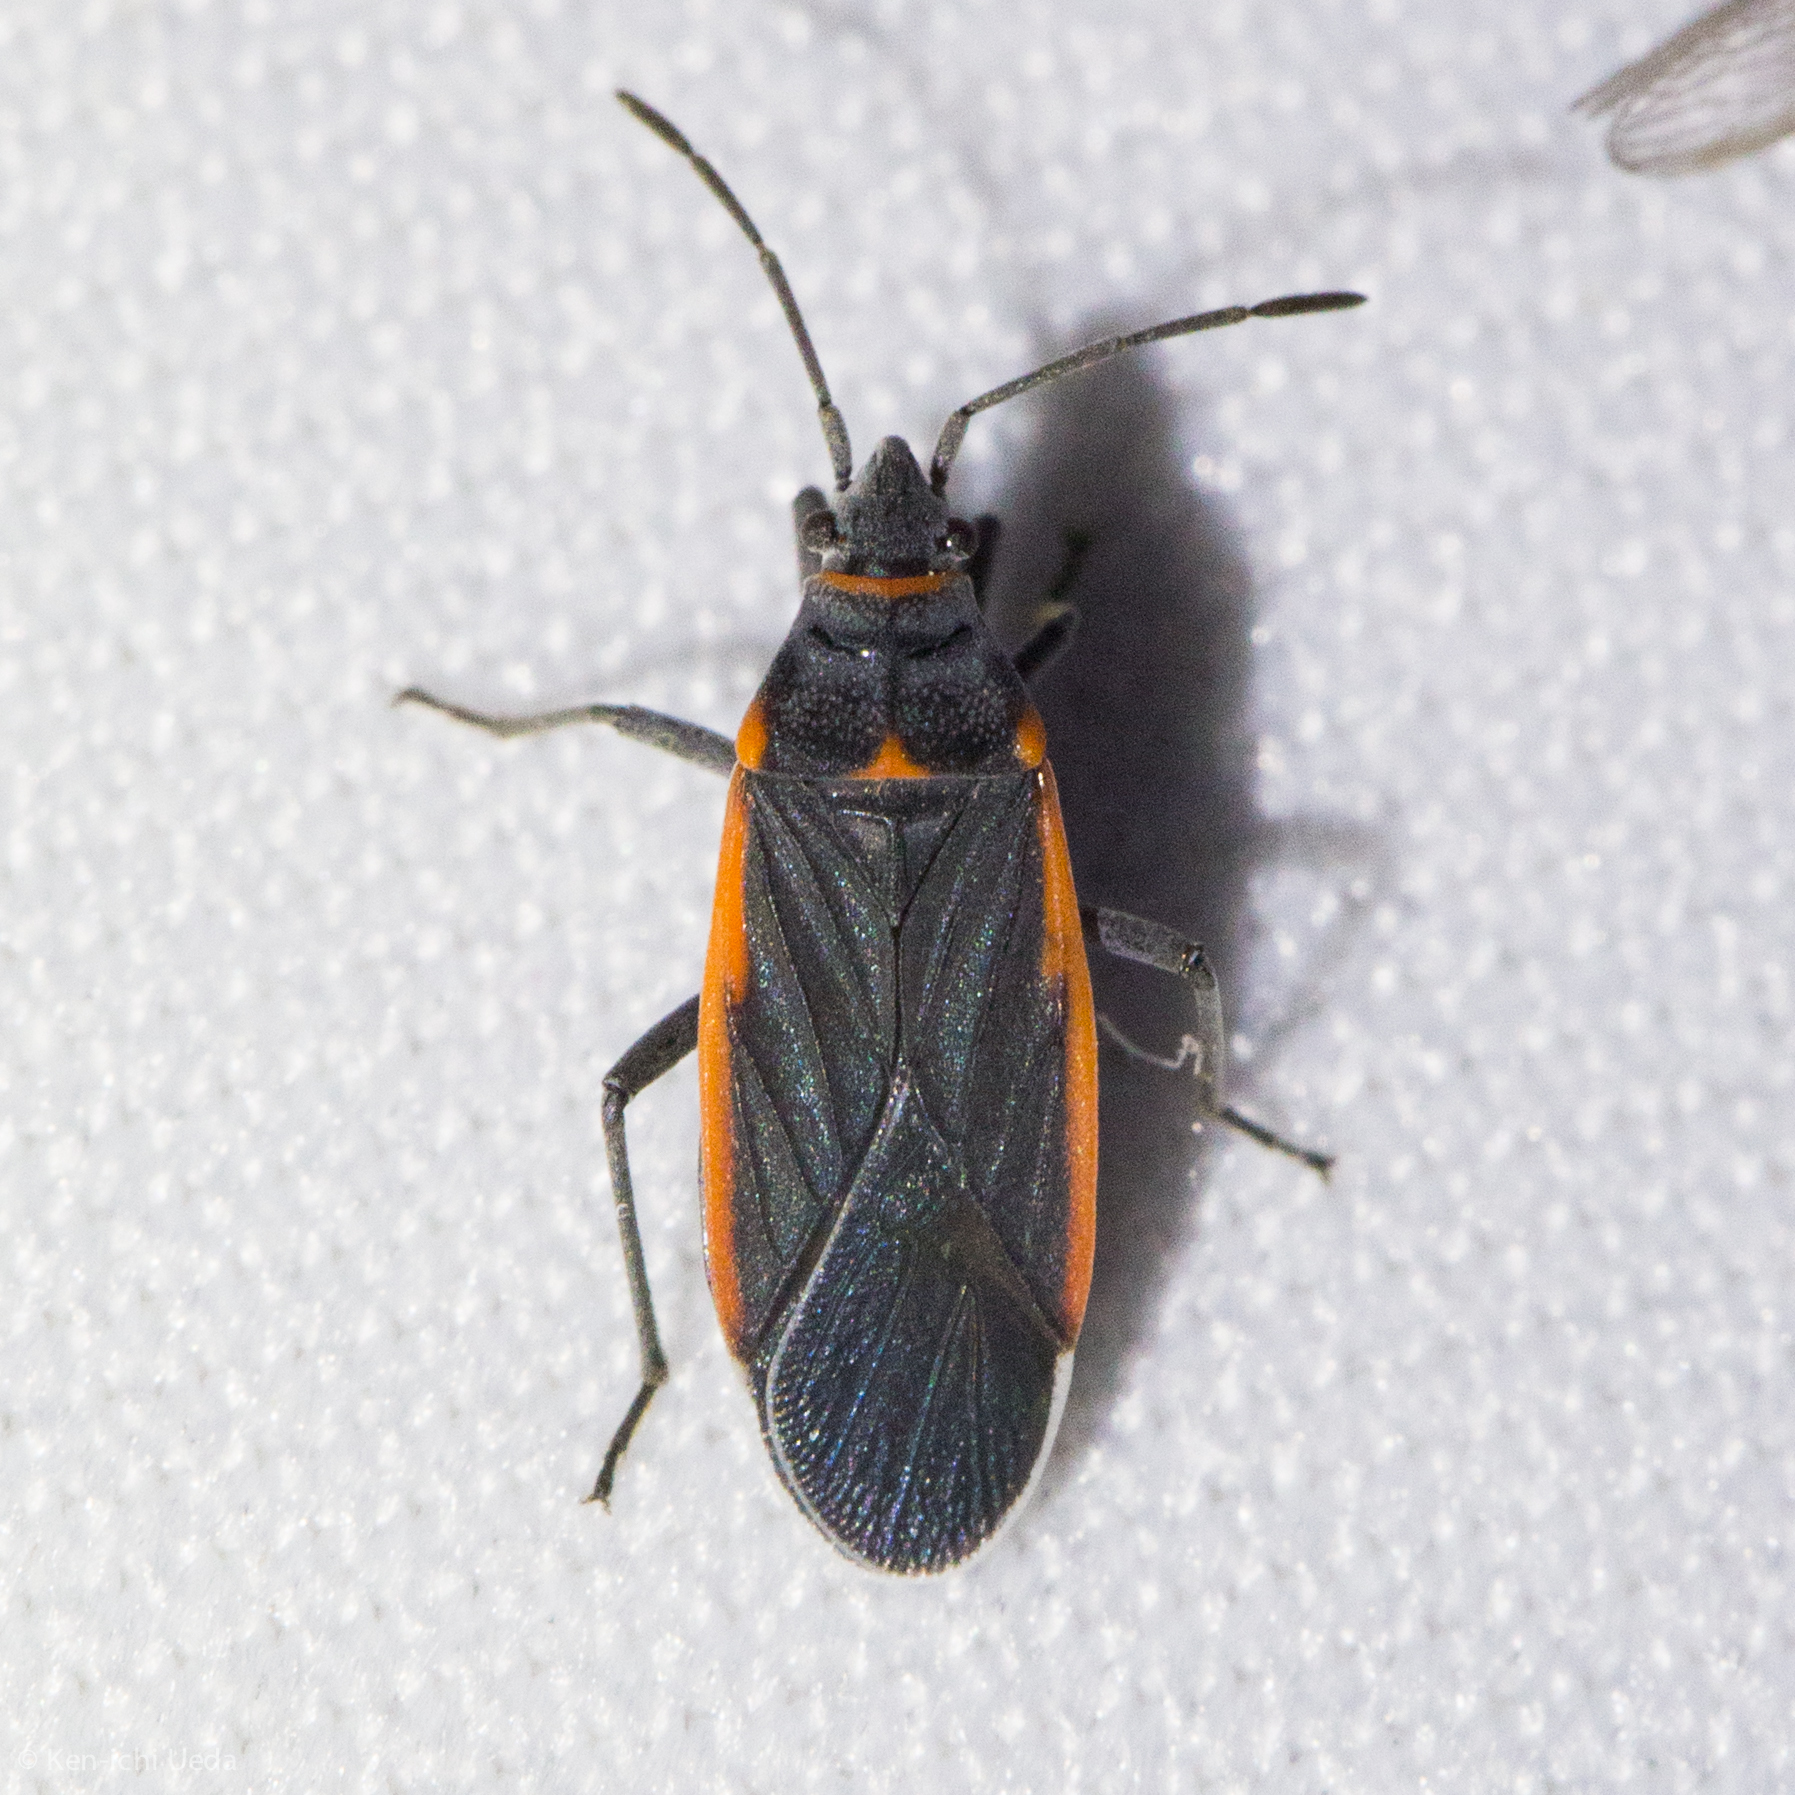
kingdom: Animalia
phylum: Arthropoda
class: Insecta
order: Hemiptera
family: Lygaeidae
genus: Melacoryphus
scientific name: Melacoryphus lateralis
